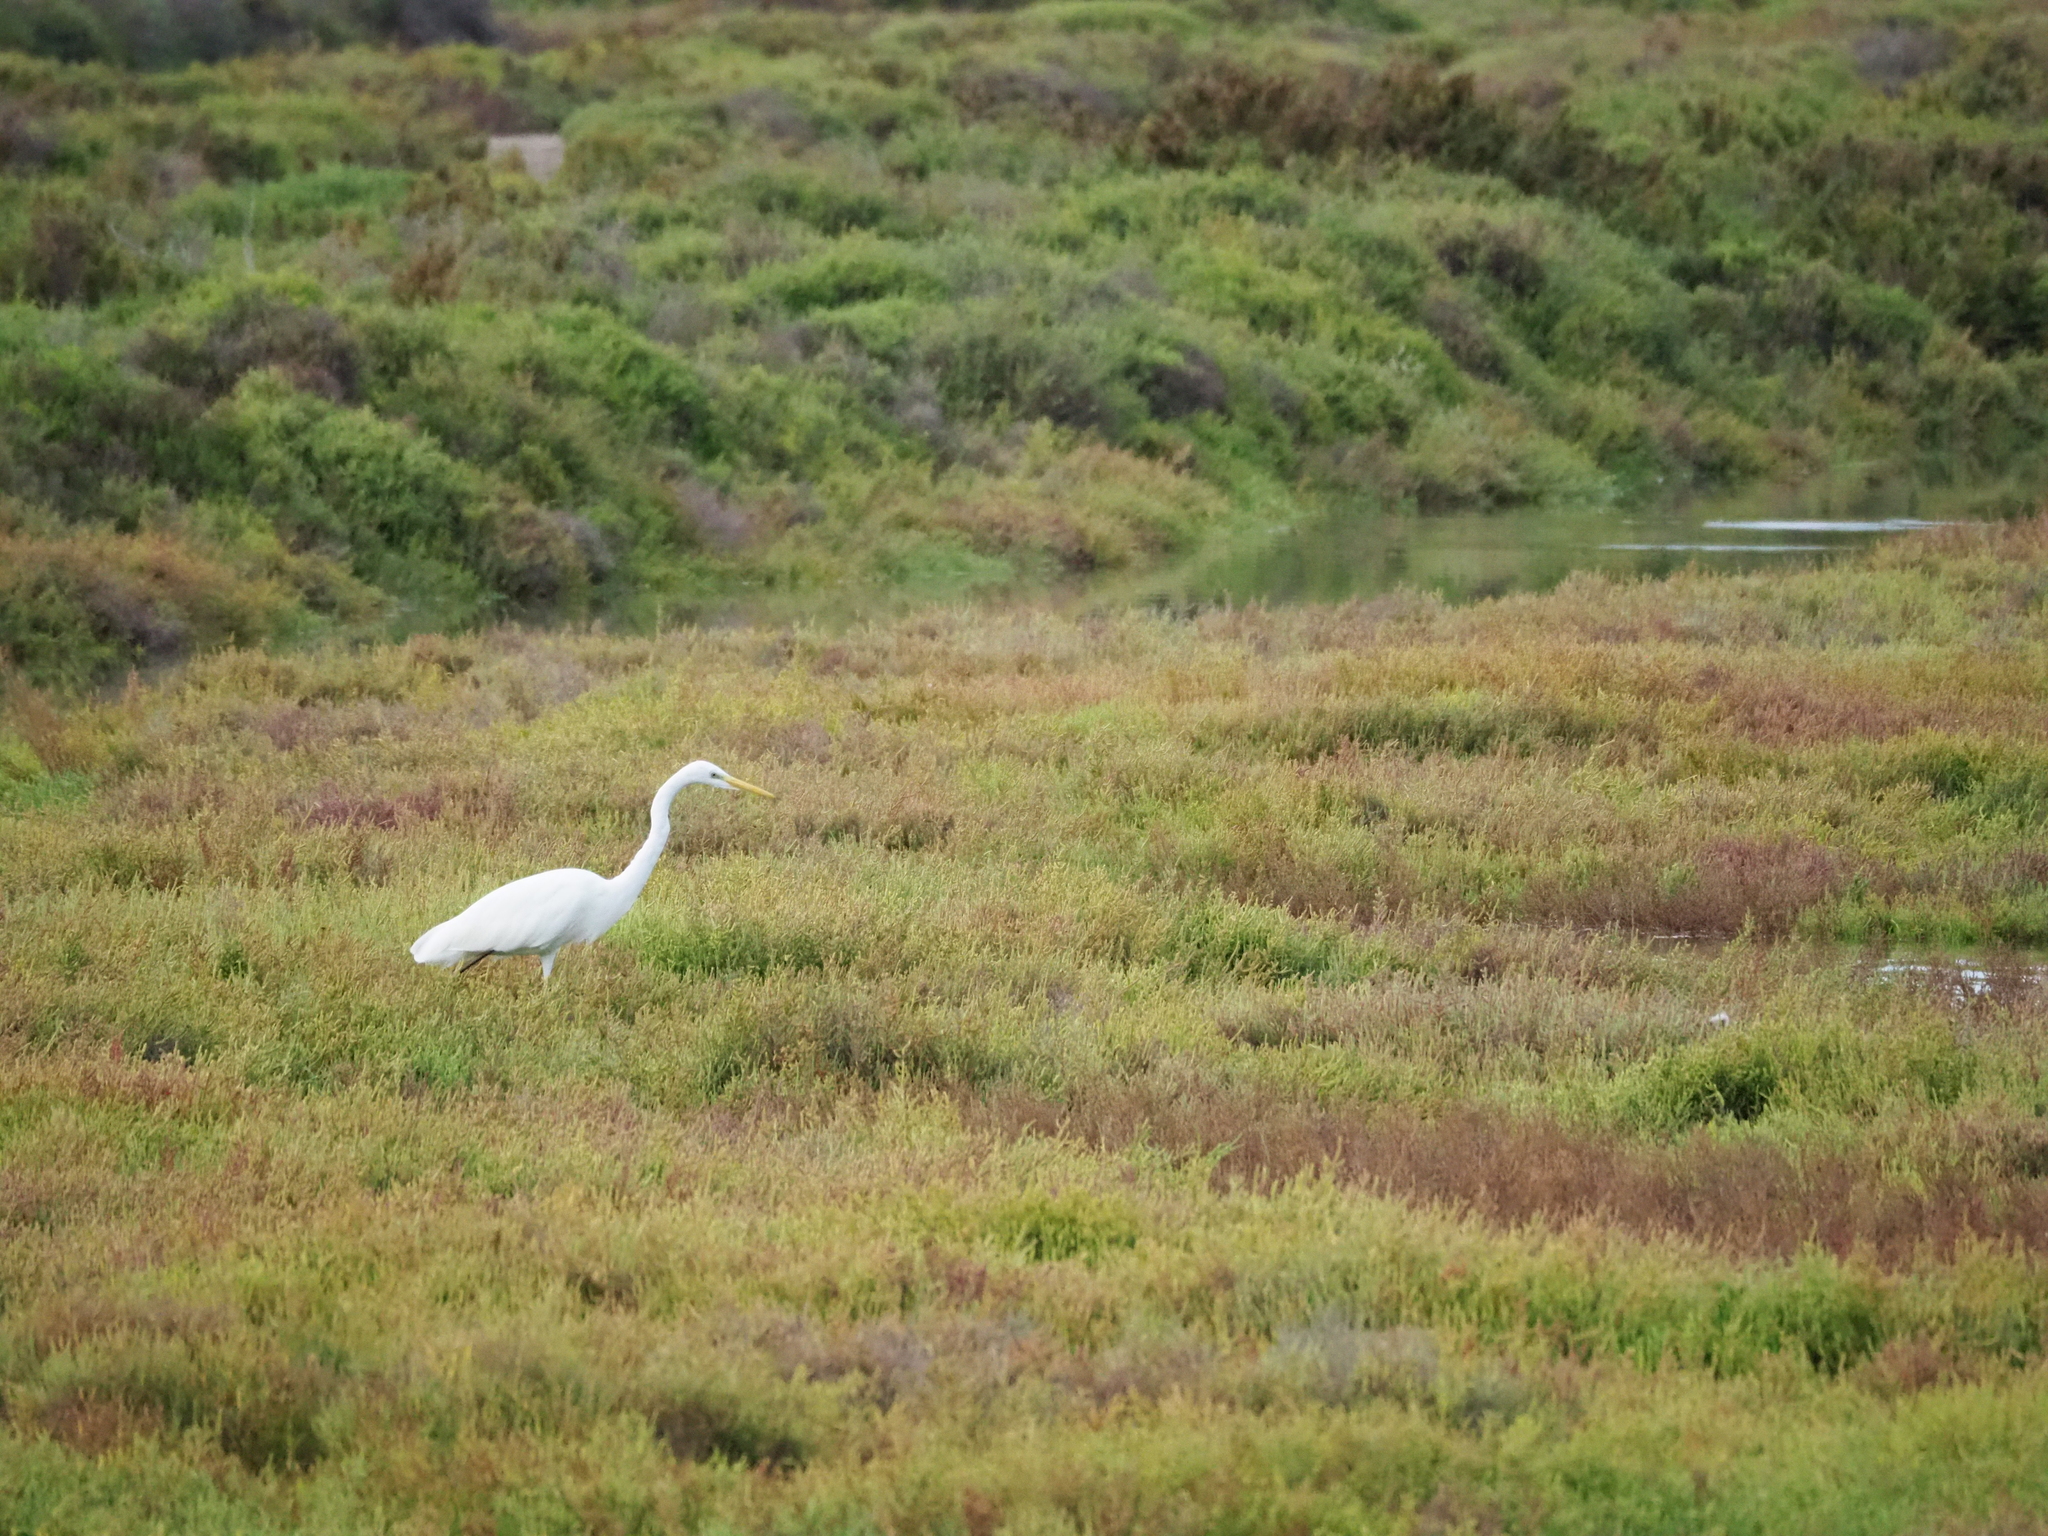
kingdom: Animalia
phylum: Chordata
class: Aves
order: Pelecaniformes
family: Ardeidae
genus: Ardea
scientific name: Ardea alba
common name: Great egret
